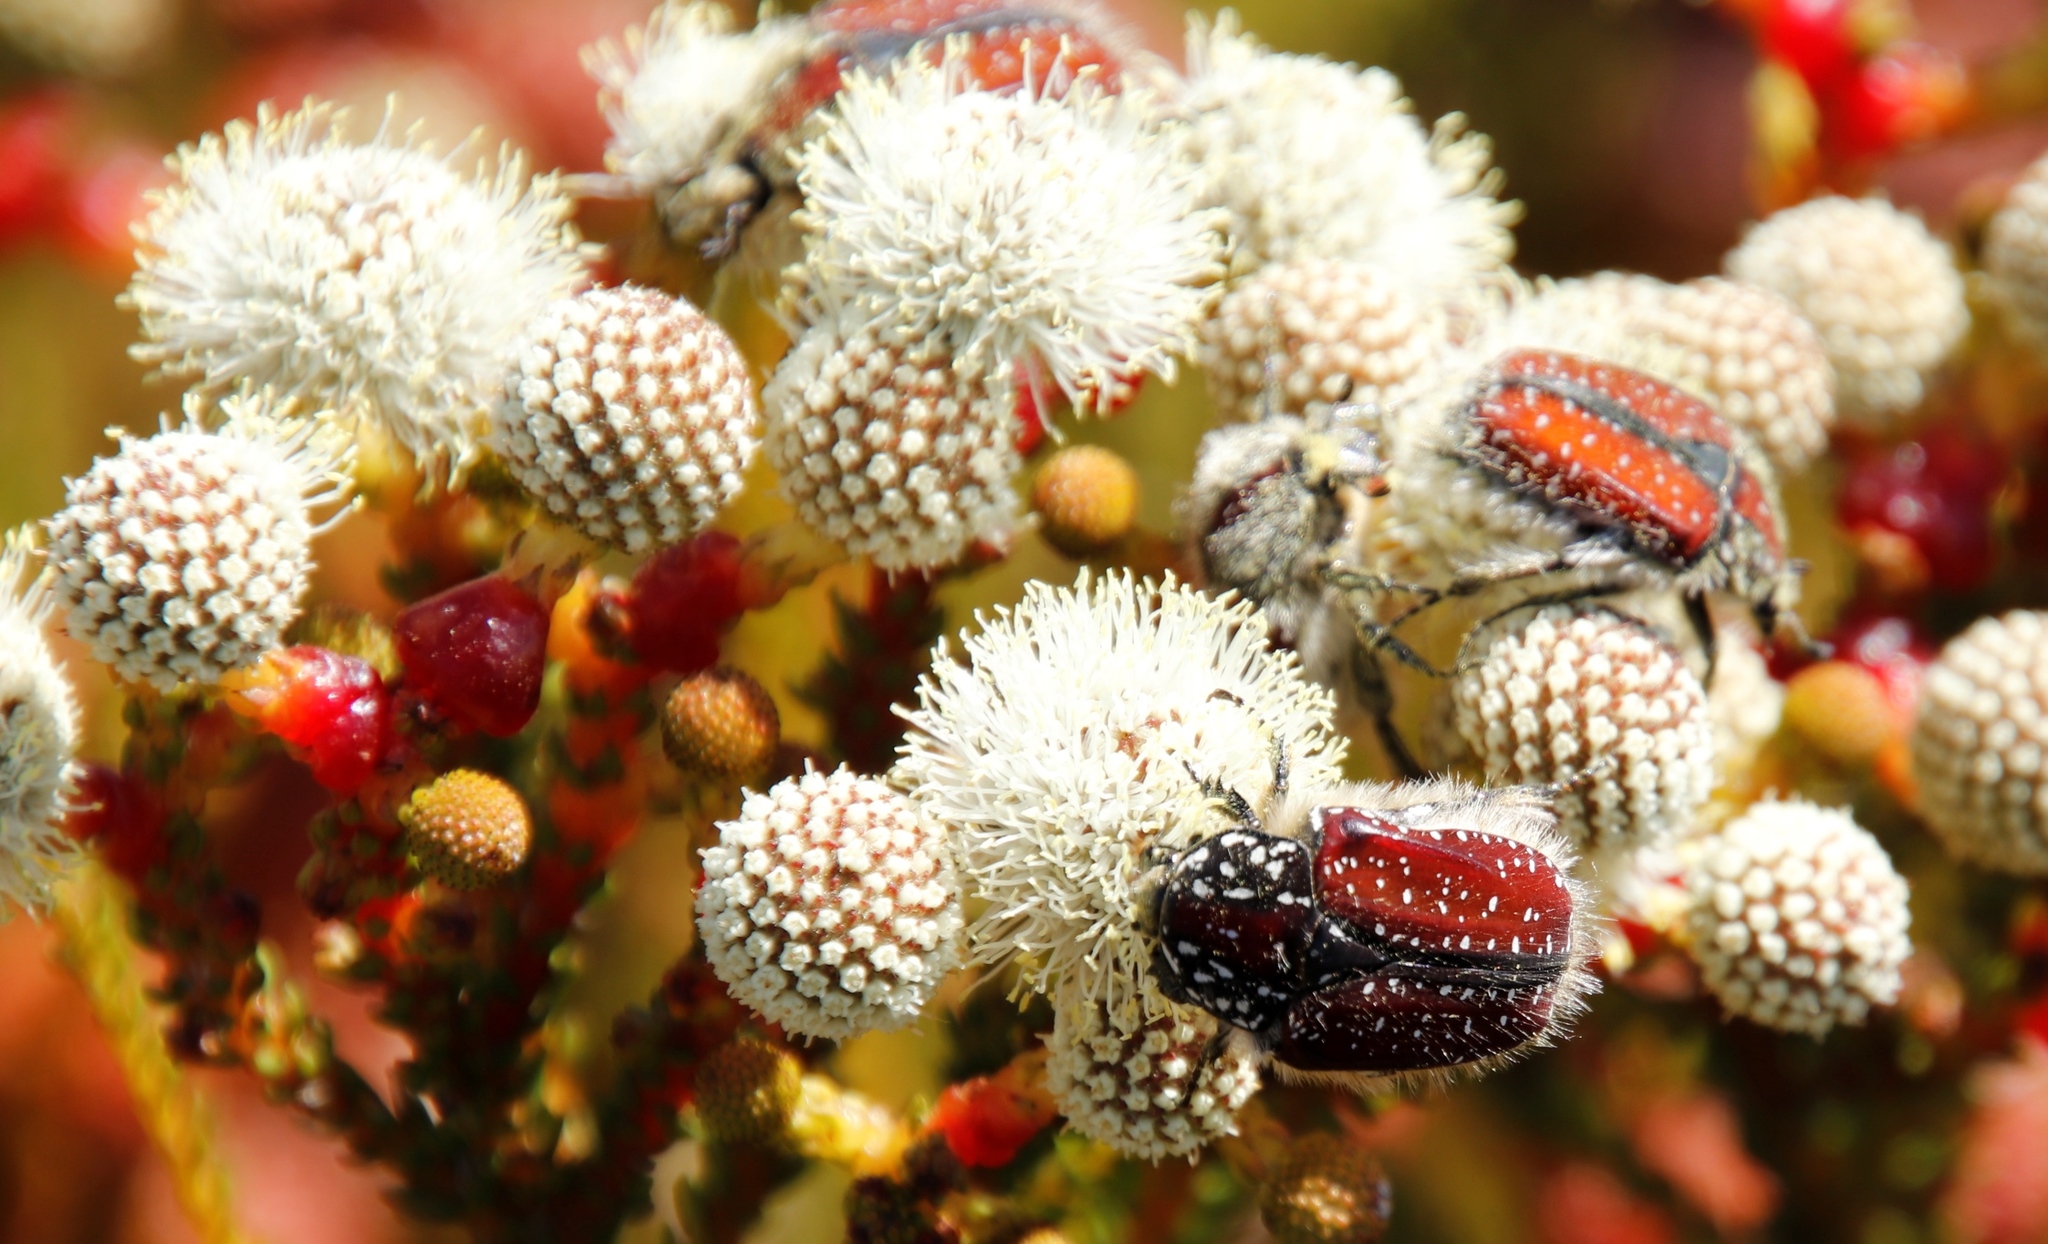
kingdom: Plantae
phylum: Tracheophyta
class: Magnoliopsida
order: Bruniales
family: Bruniaceae
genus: Berzelia
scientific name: Berzelia abrotanoides
